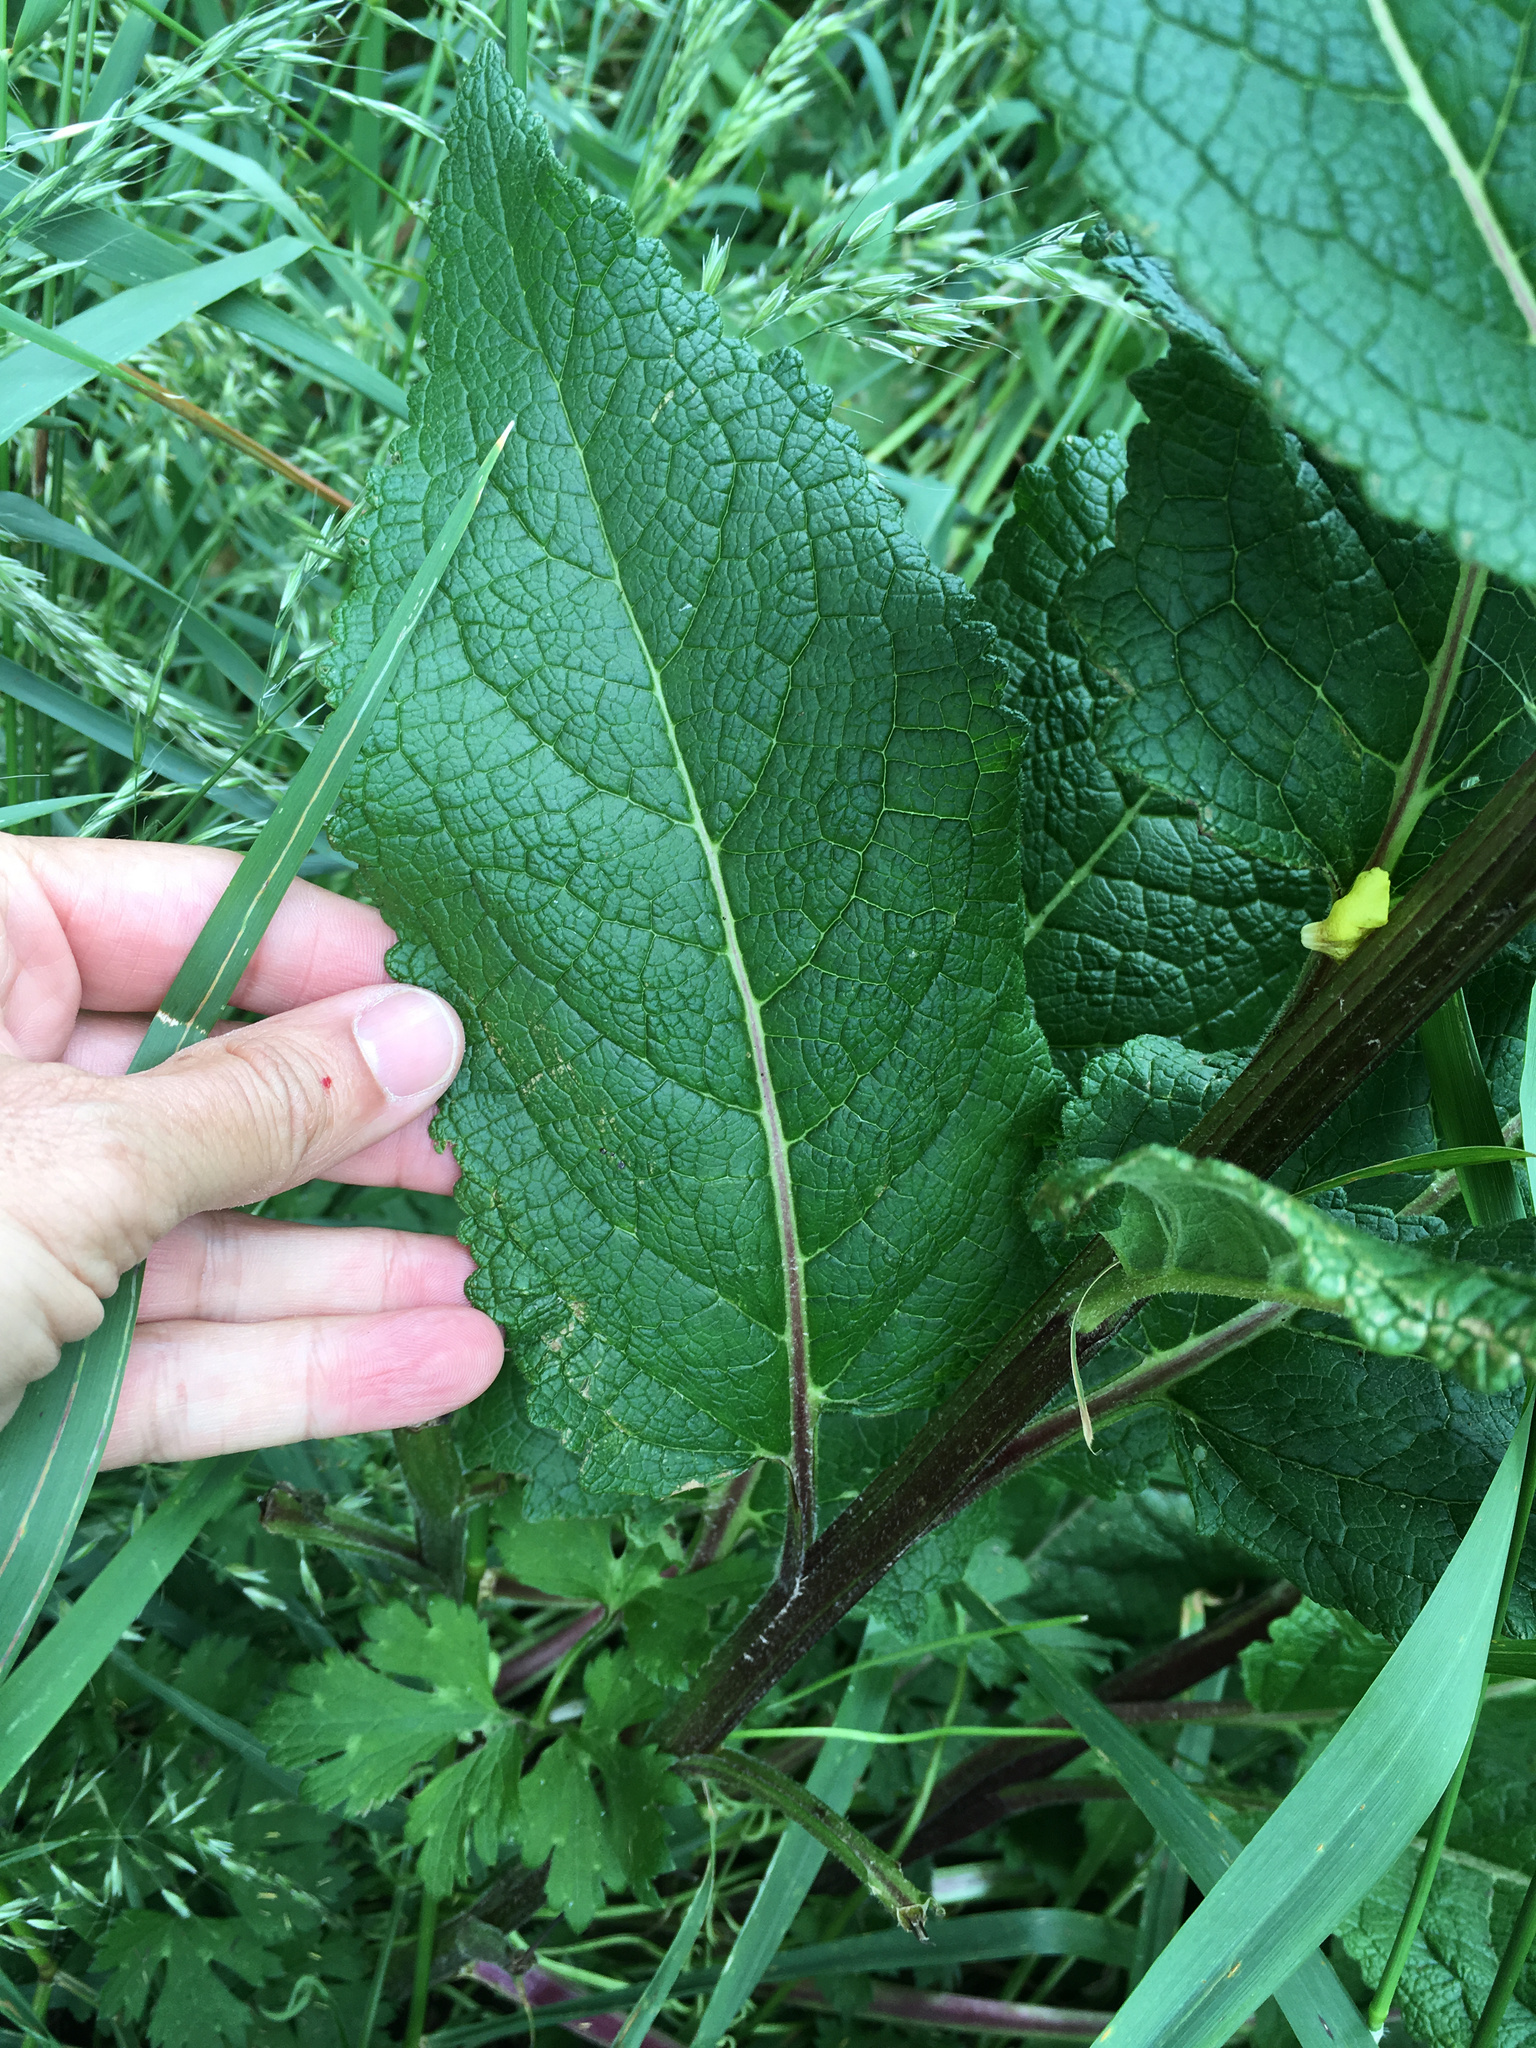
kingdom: Plantae
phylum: Tracheophyta
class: Magnoliopsida
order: Lamiales
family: Scrophulariaceae
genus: Verbascum
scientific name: Verbascum virgatum
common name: Twiggy mullein
